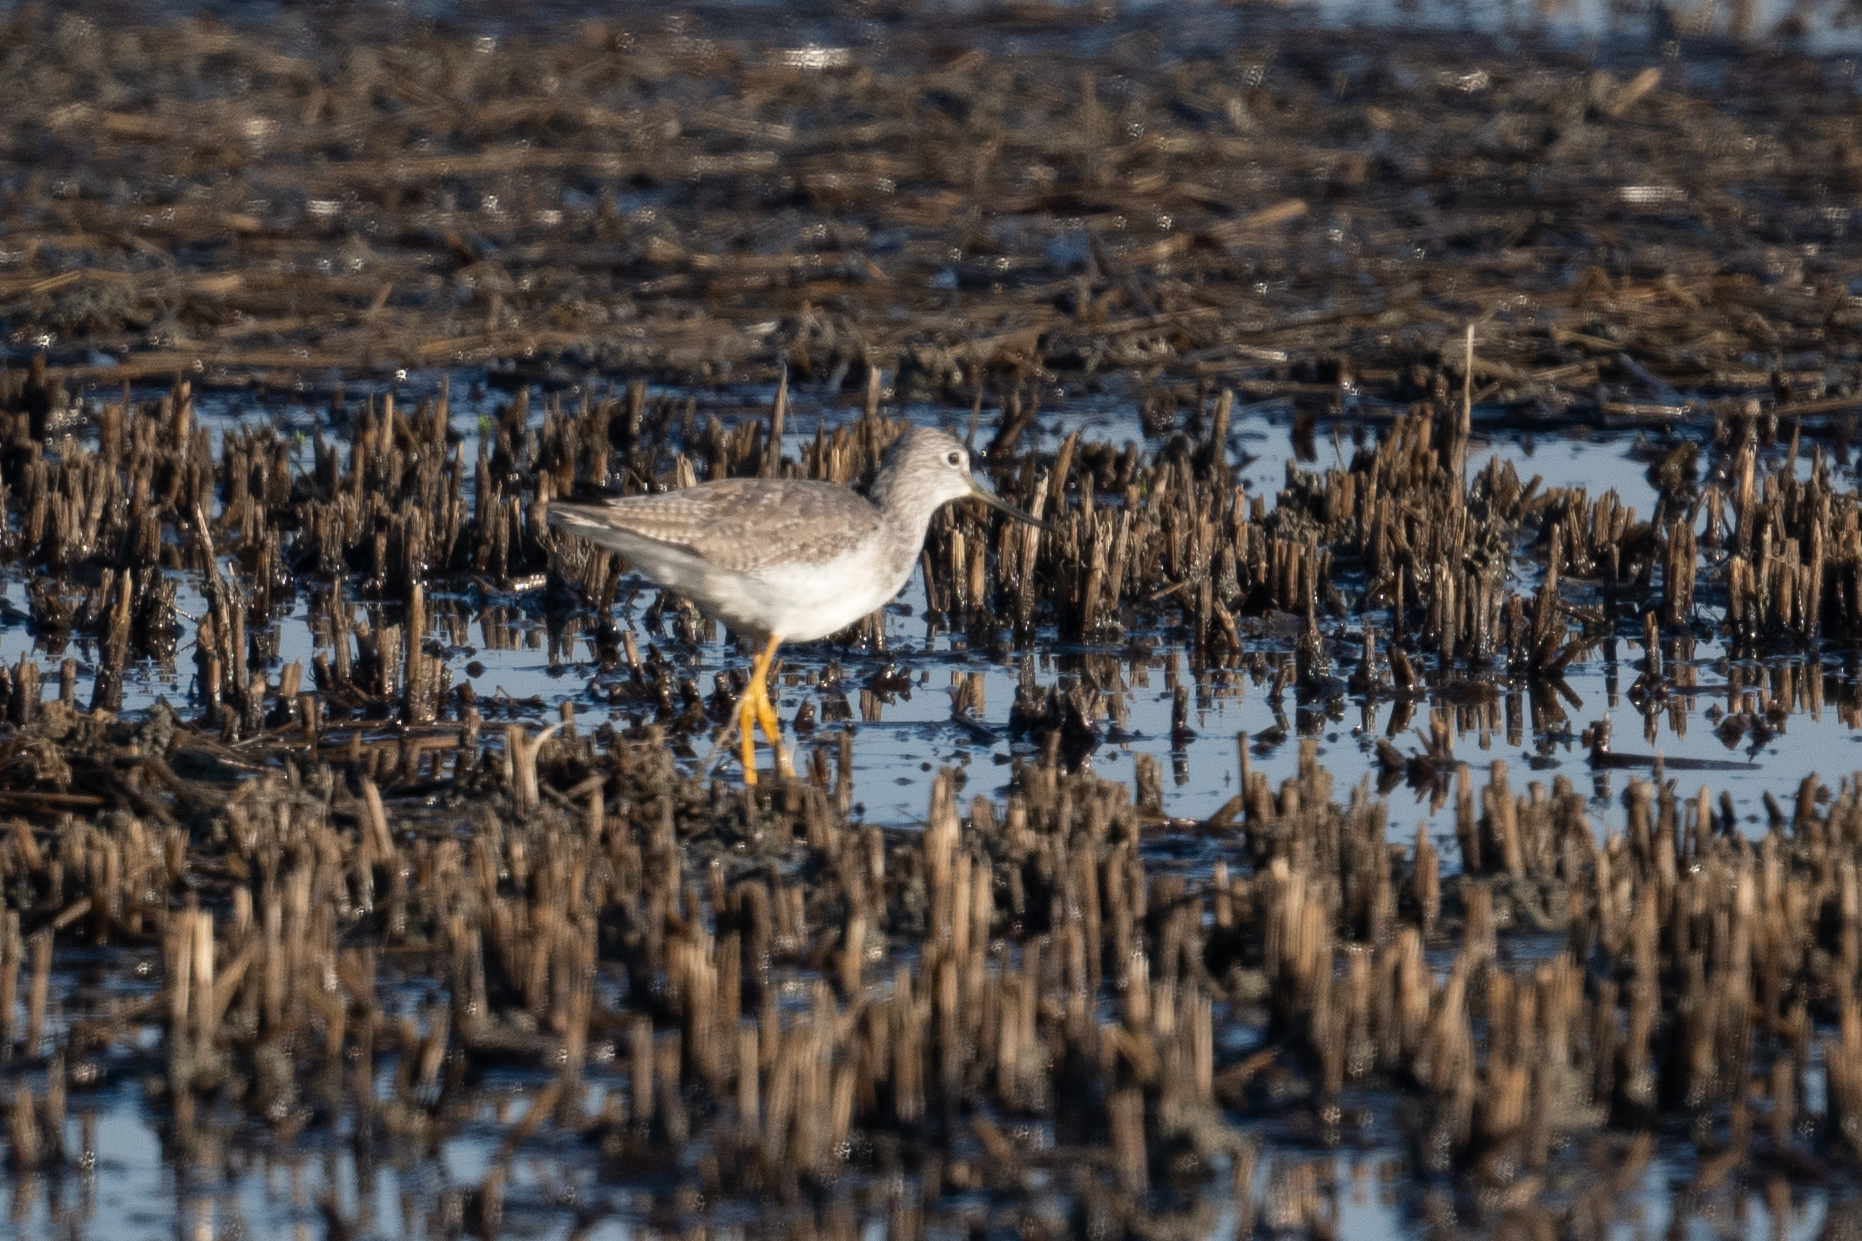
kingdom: Animalia
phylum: Chordata
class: Aves
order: Charadriiformes
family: Scolopacidae
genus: Tringa
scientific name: Tringa melanoleuca
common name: Greater yellowlegs
